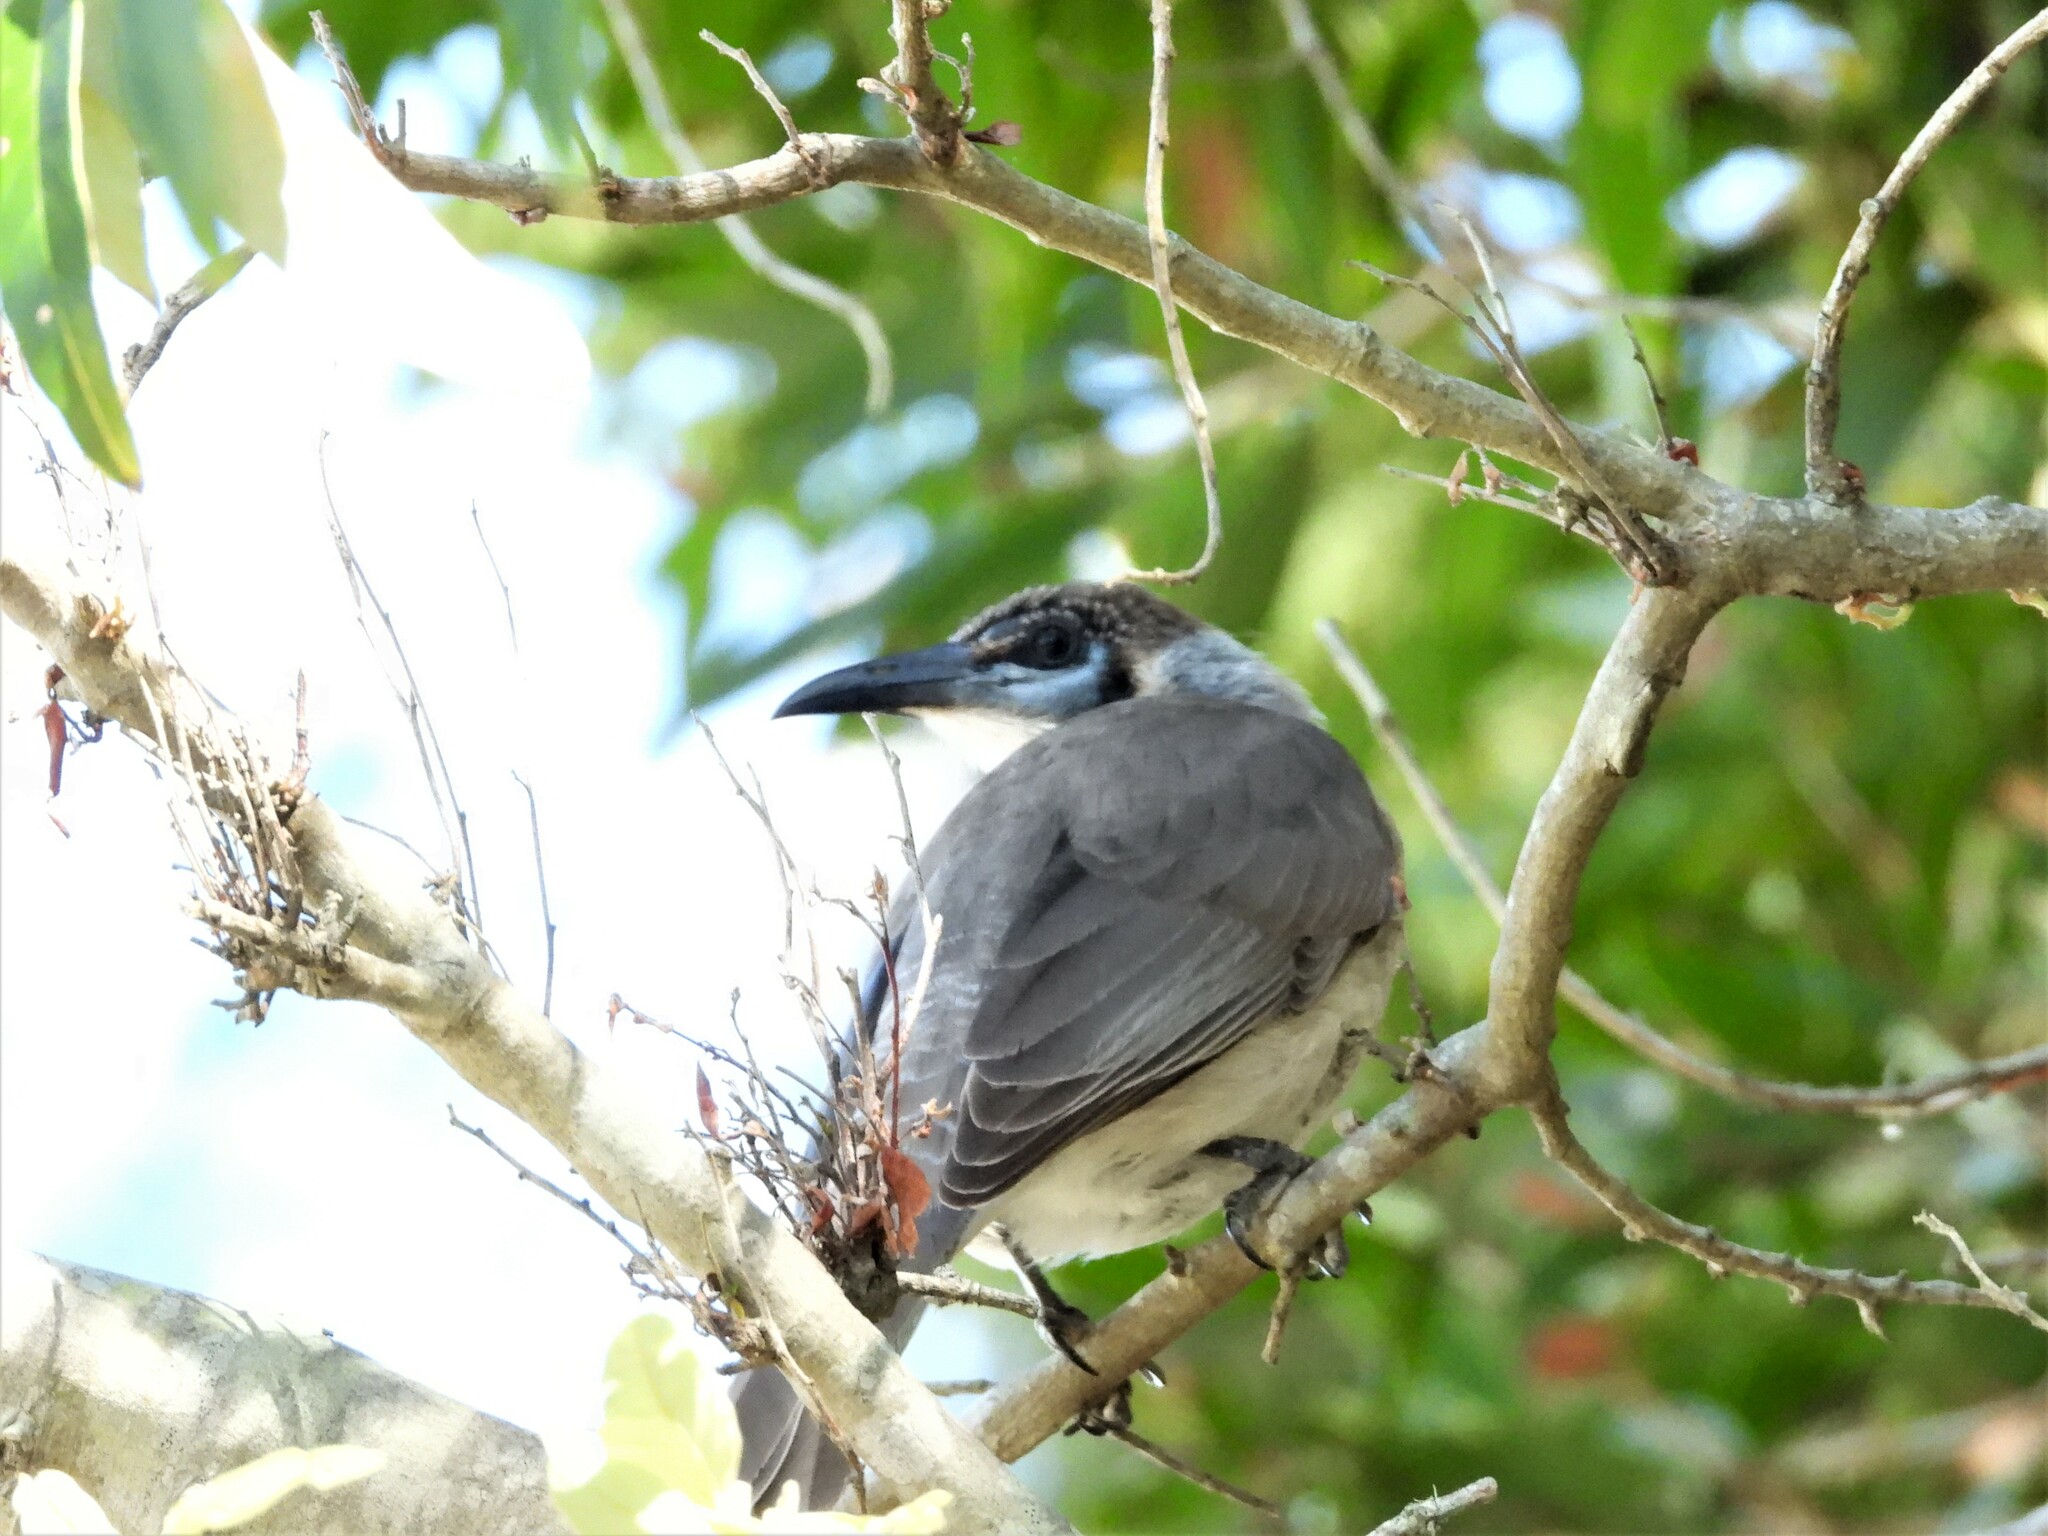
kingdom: Animalia
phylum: Chordata
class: Aves
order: Passeriformes
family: Meliphagidae
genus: Philemon
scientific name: Philemon citreogularis
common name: Little friarbird
